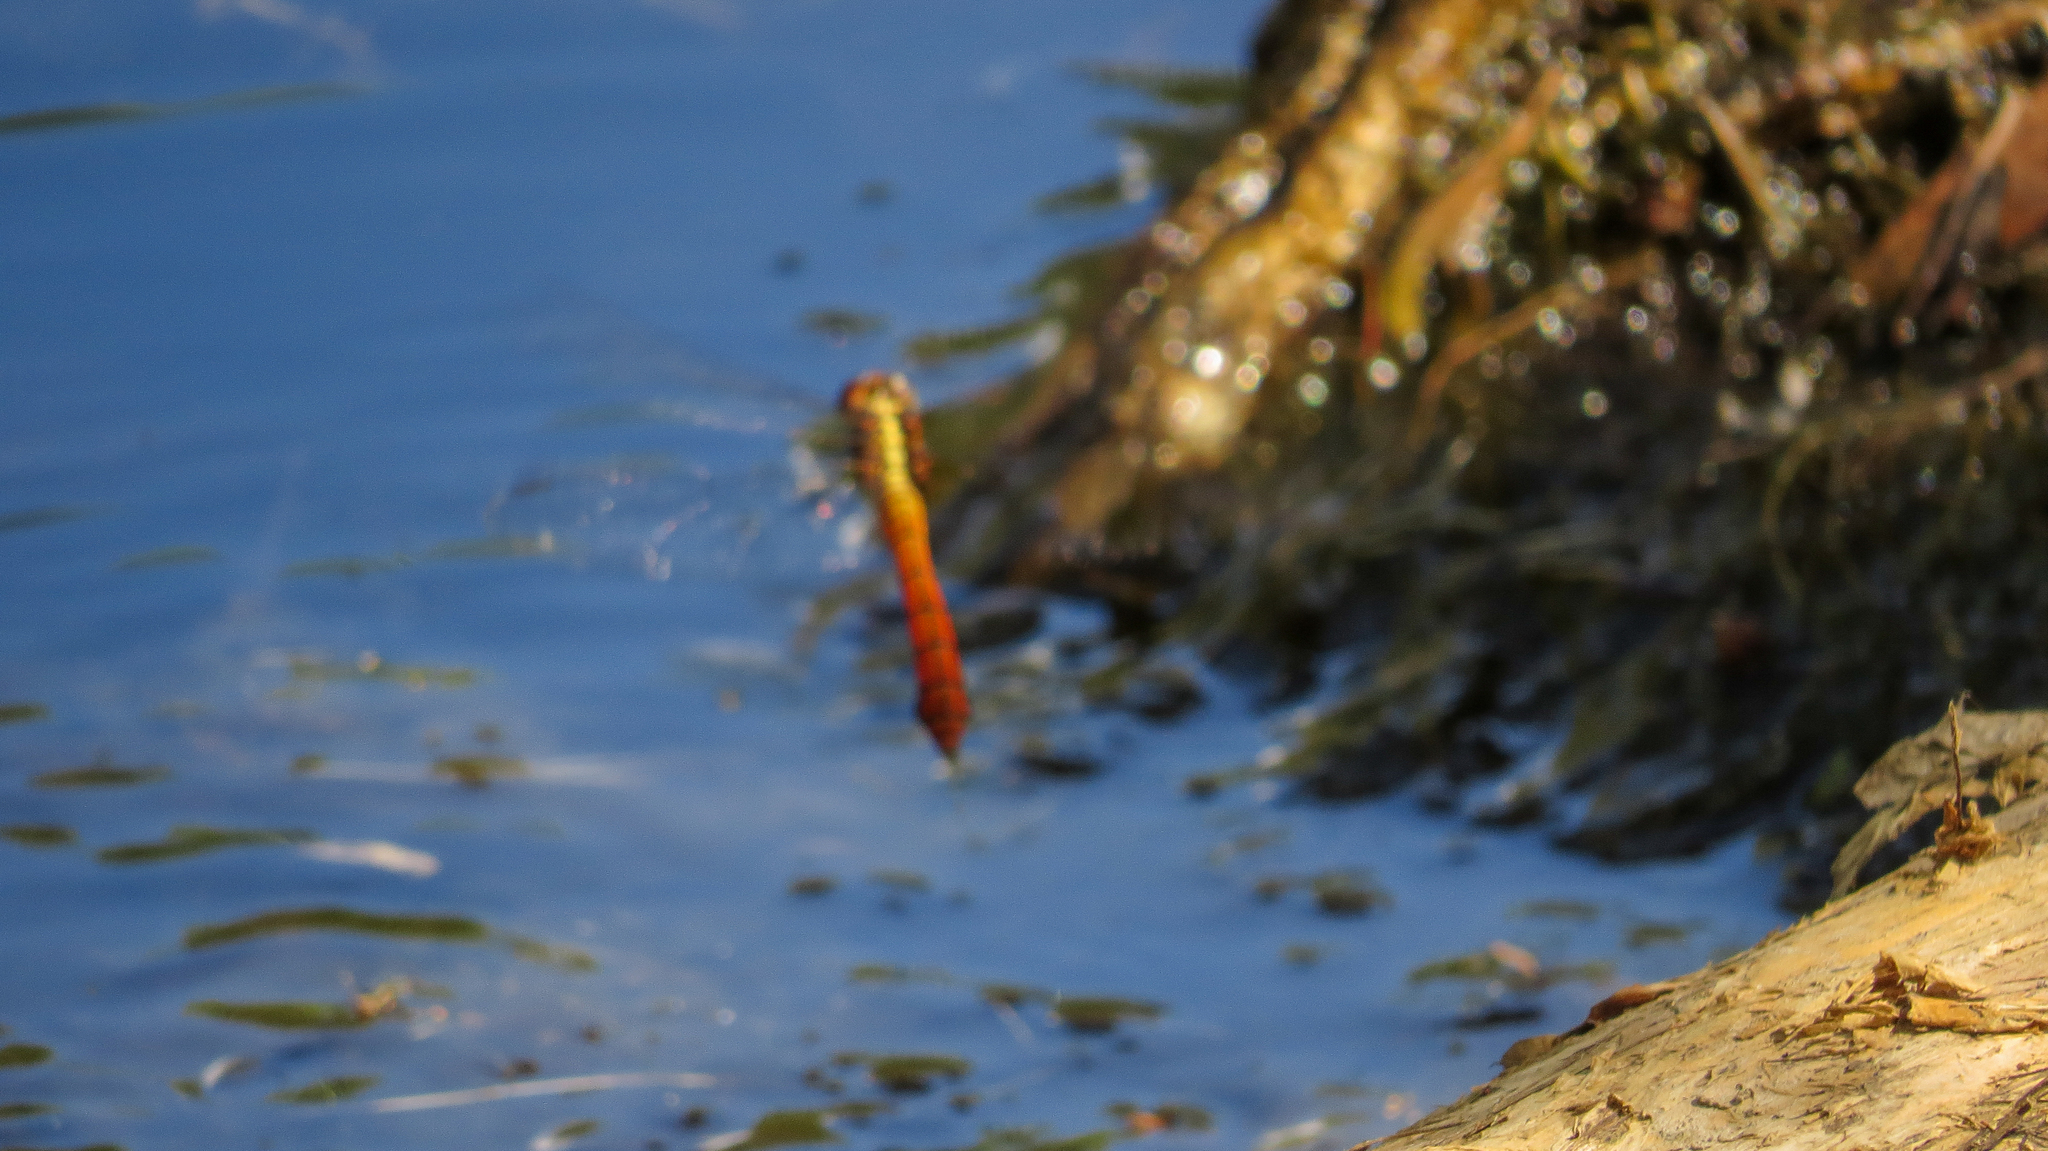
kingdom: Animalia
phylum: Arthropoda
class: Insecta
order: Odonata
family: Libellulidae
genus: Orthetrum
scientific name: Orthetrum villosovittatum
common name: Firery skimmer
